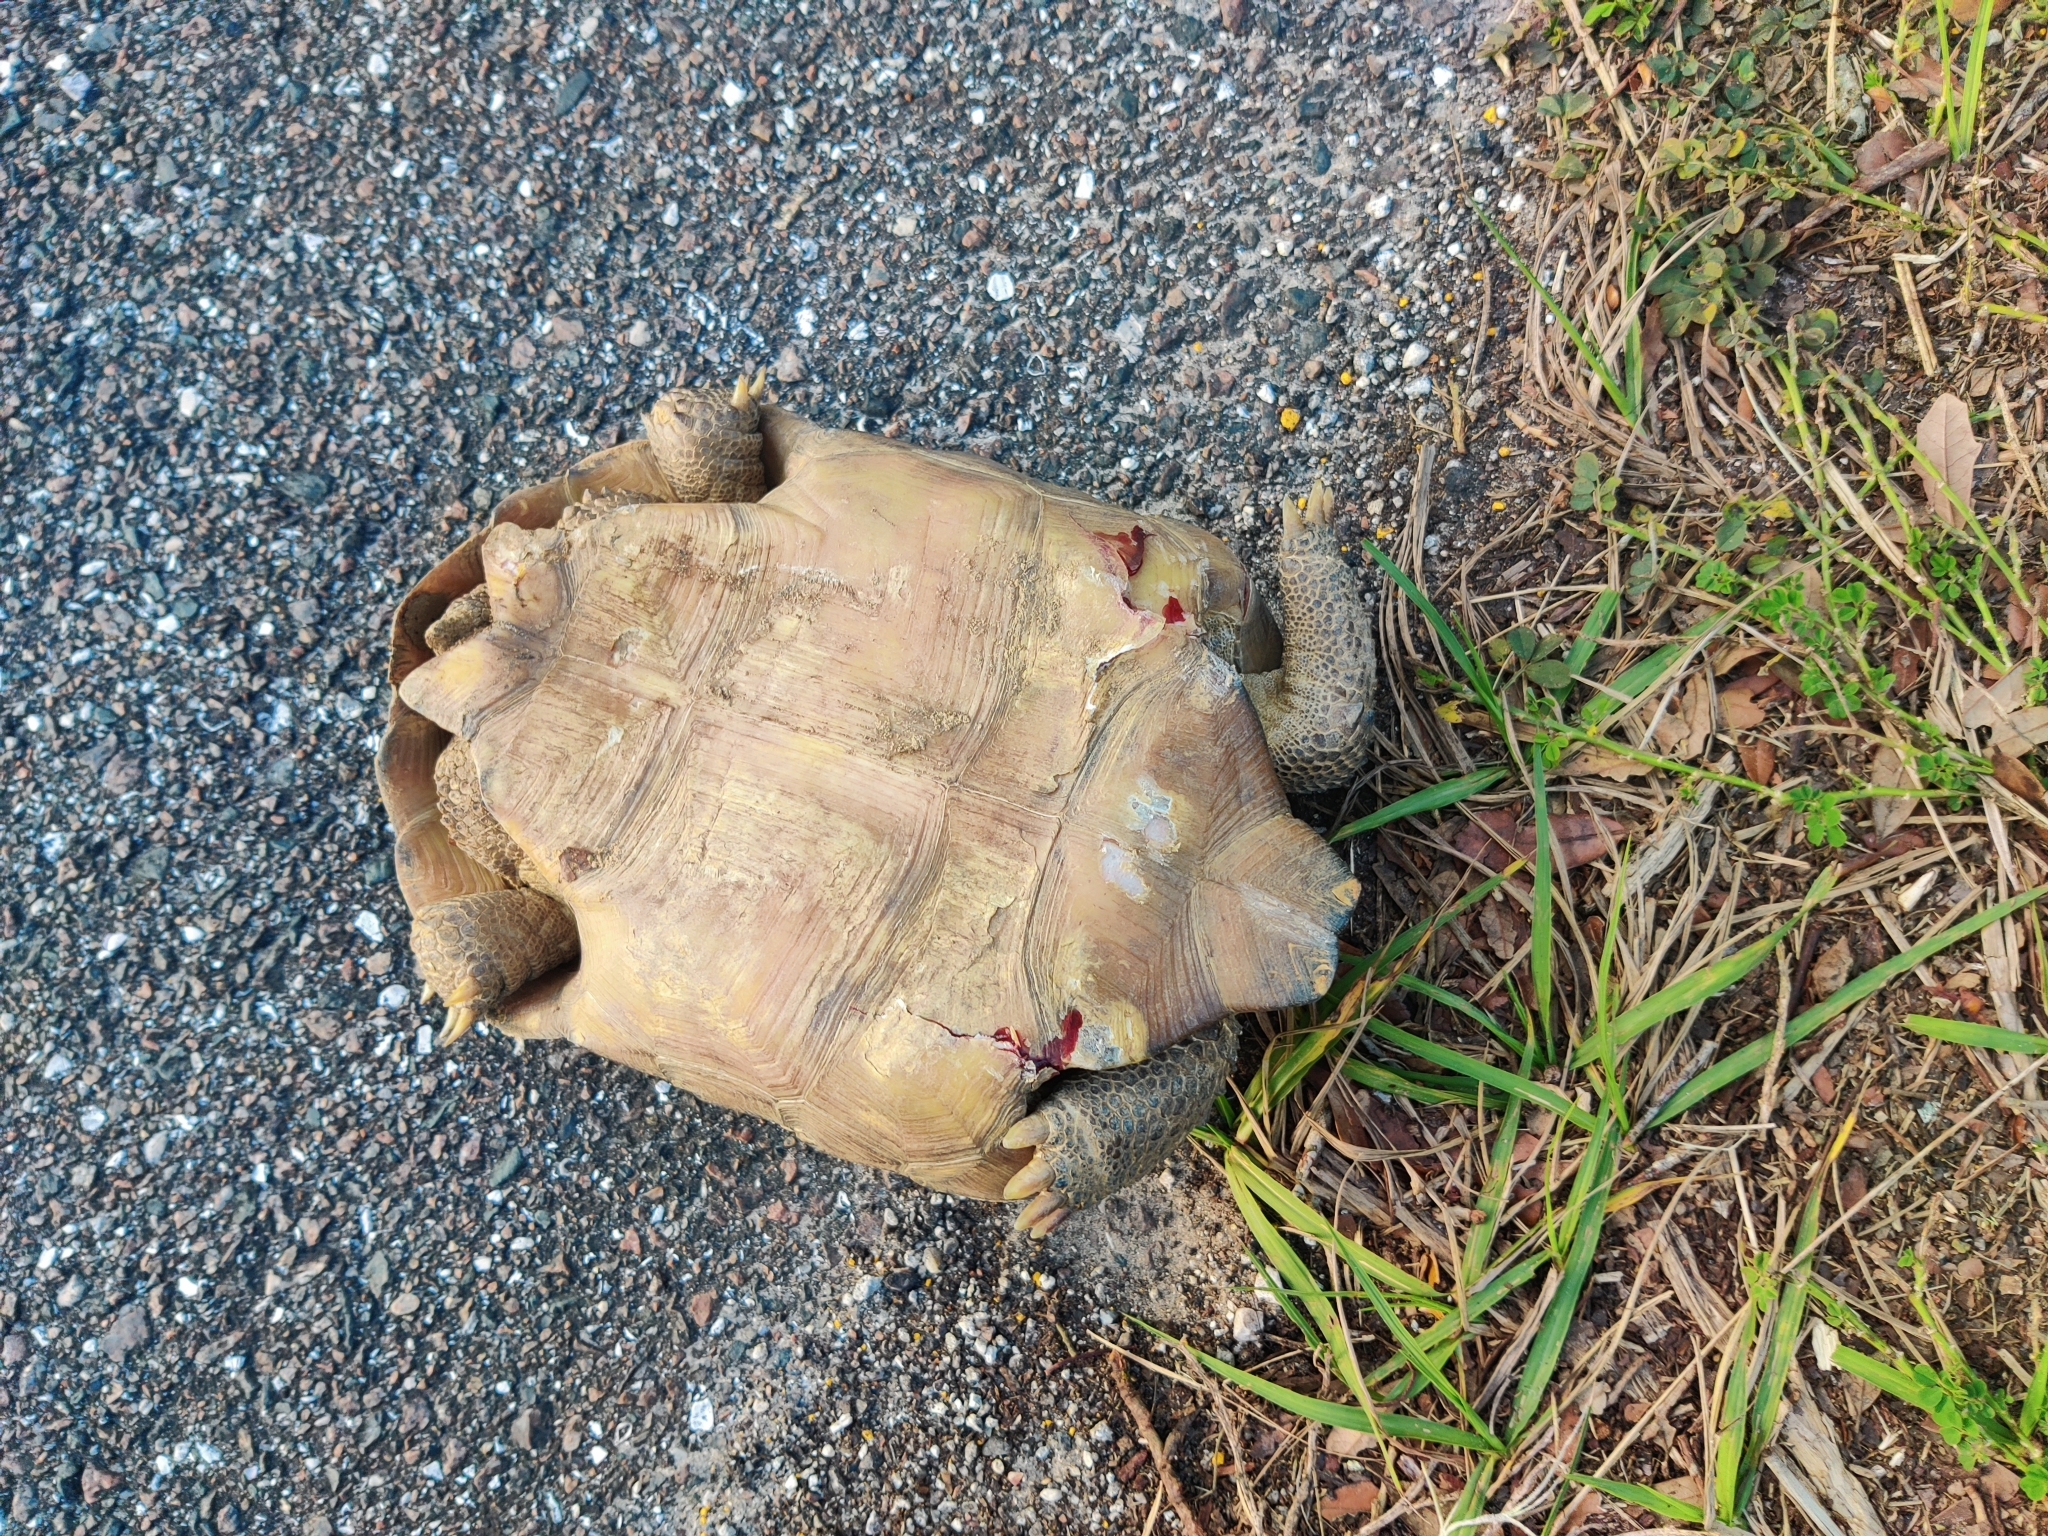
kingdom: Animalia
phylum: Chordata
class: Testudines
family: Testudinidae
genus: Gopherus
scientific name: Gopherus polyphemus
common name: Florida gopher tortoise
